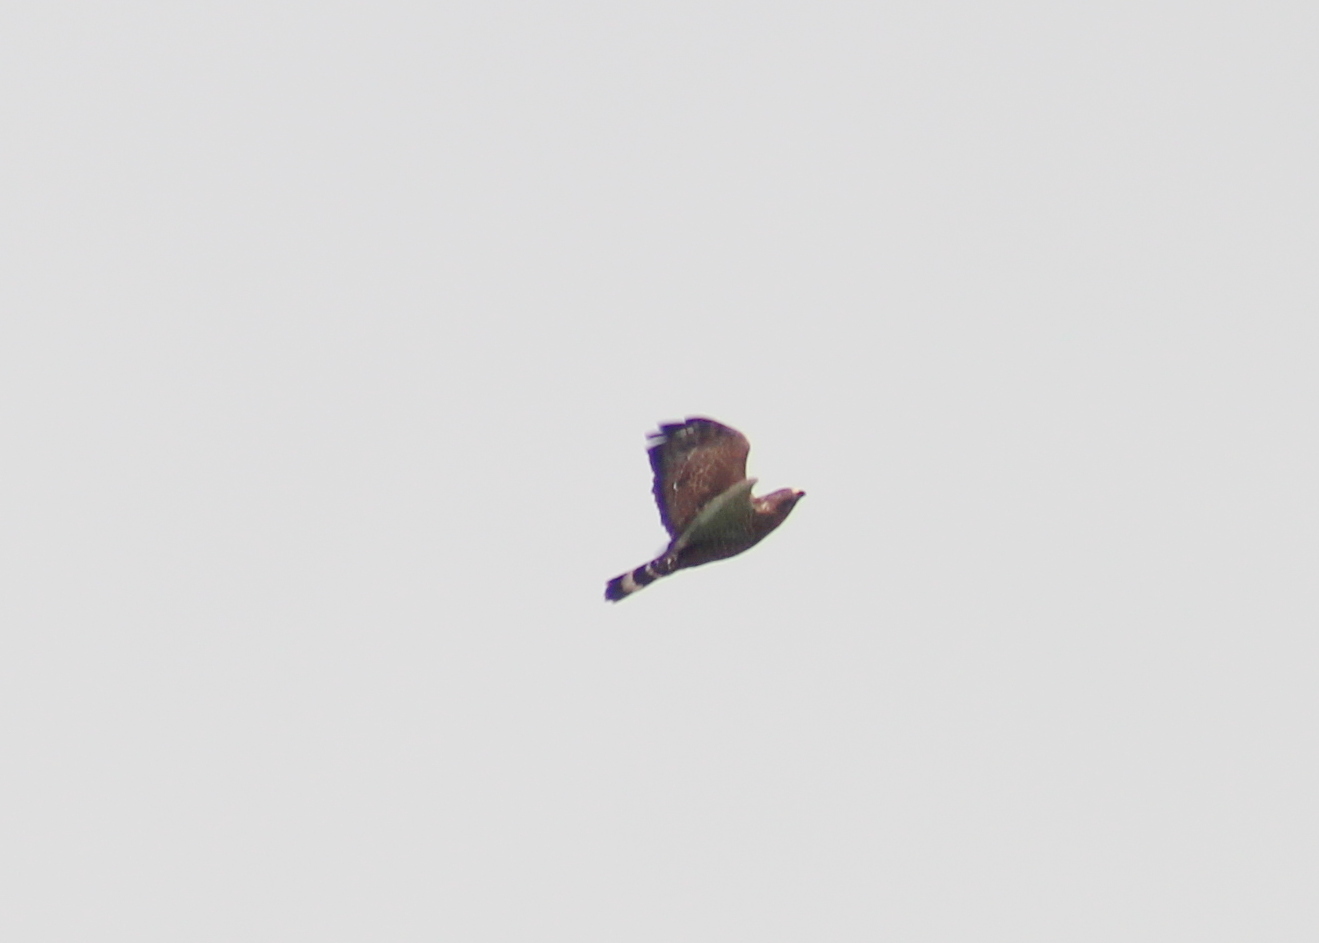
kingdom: Animalia
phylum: Chordata
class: Aves
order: Accipitriformes
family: Accipitridae
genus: Buteo
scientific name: Buteo platypterus
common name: Broad-winged hawk
